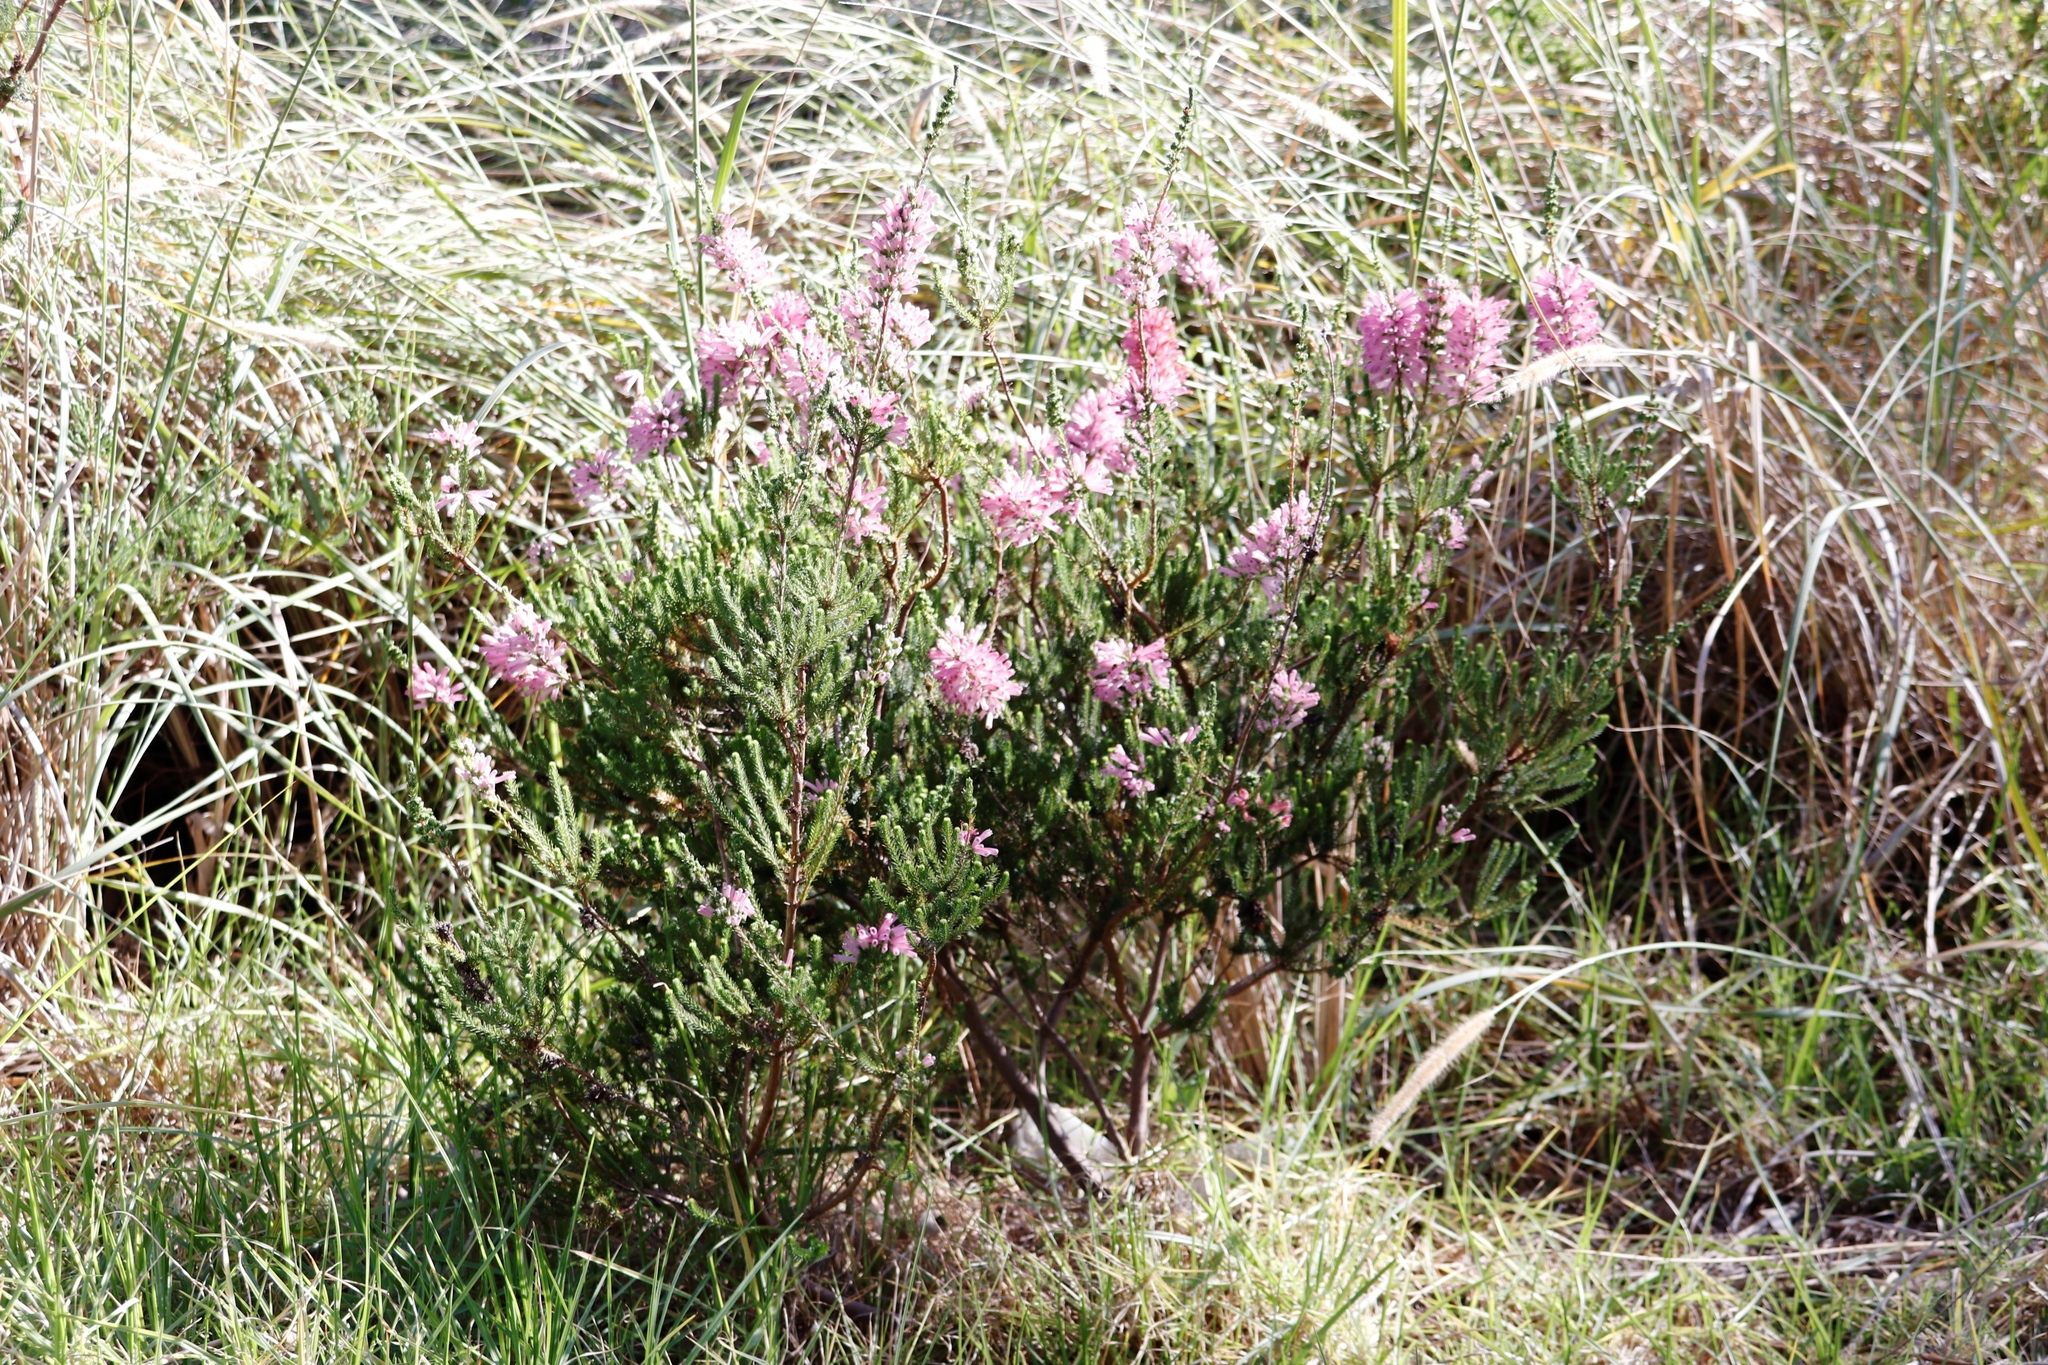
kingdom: Plantae
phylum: Tracheophyta
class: Magnoliopsida
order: Ericales
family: Ericaceae
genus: Erica
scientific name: Erica verticillata
